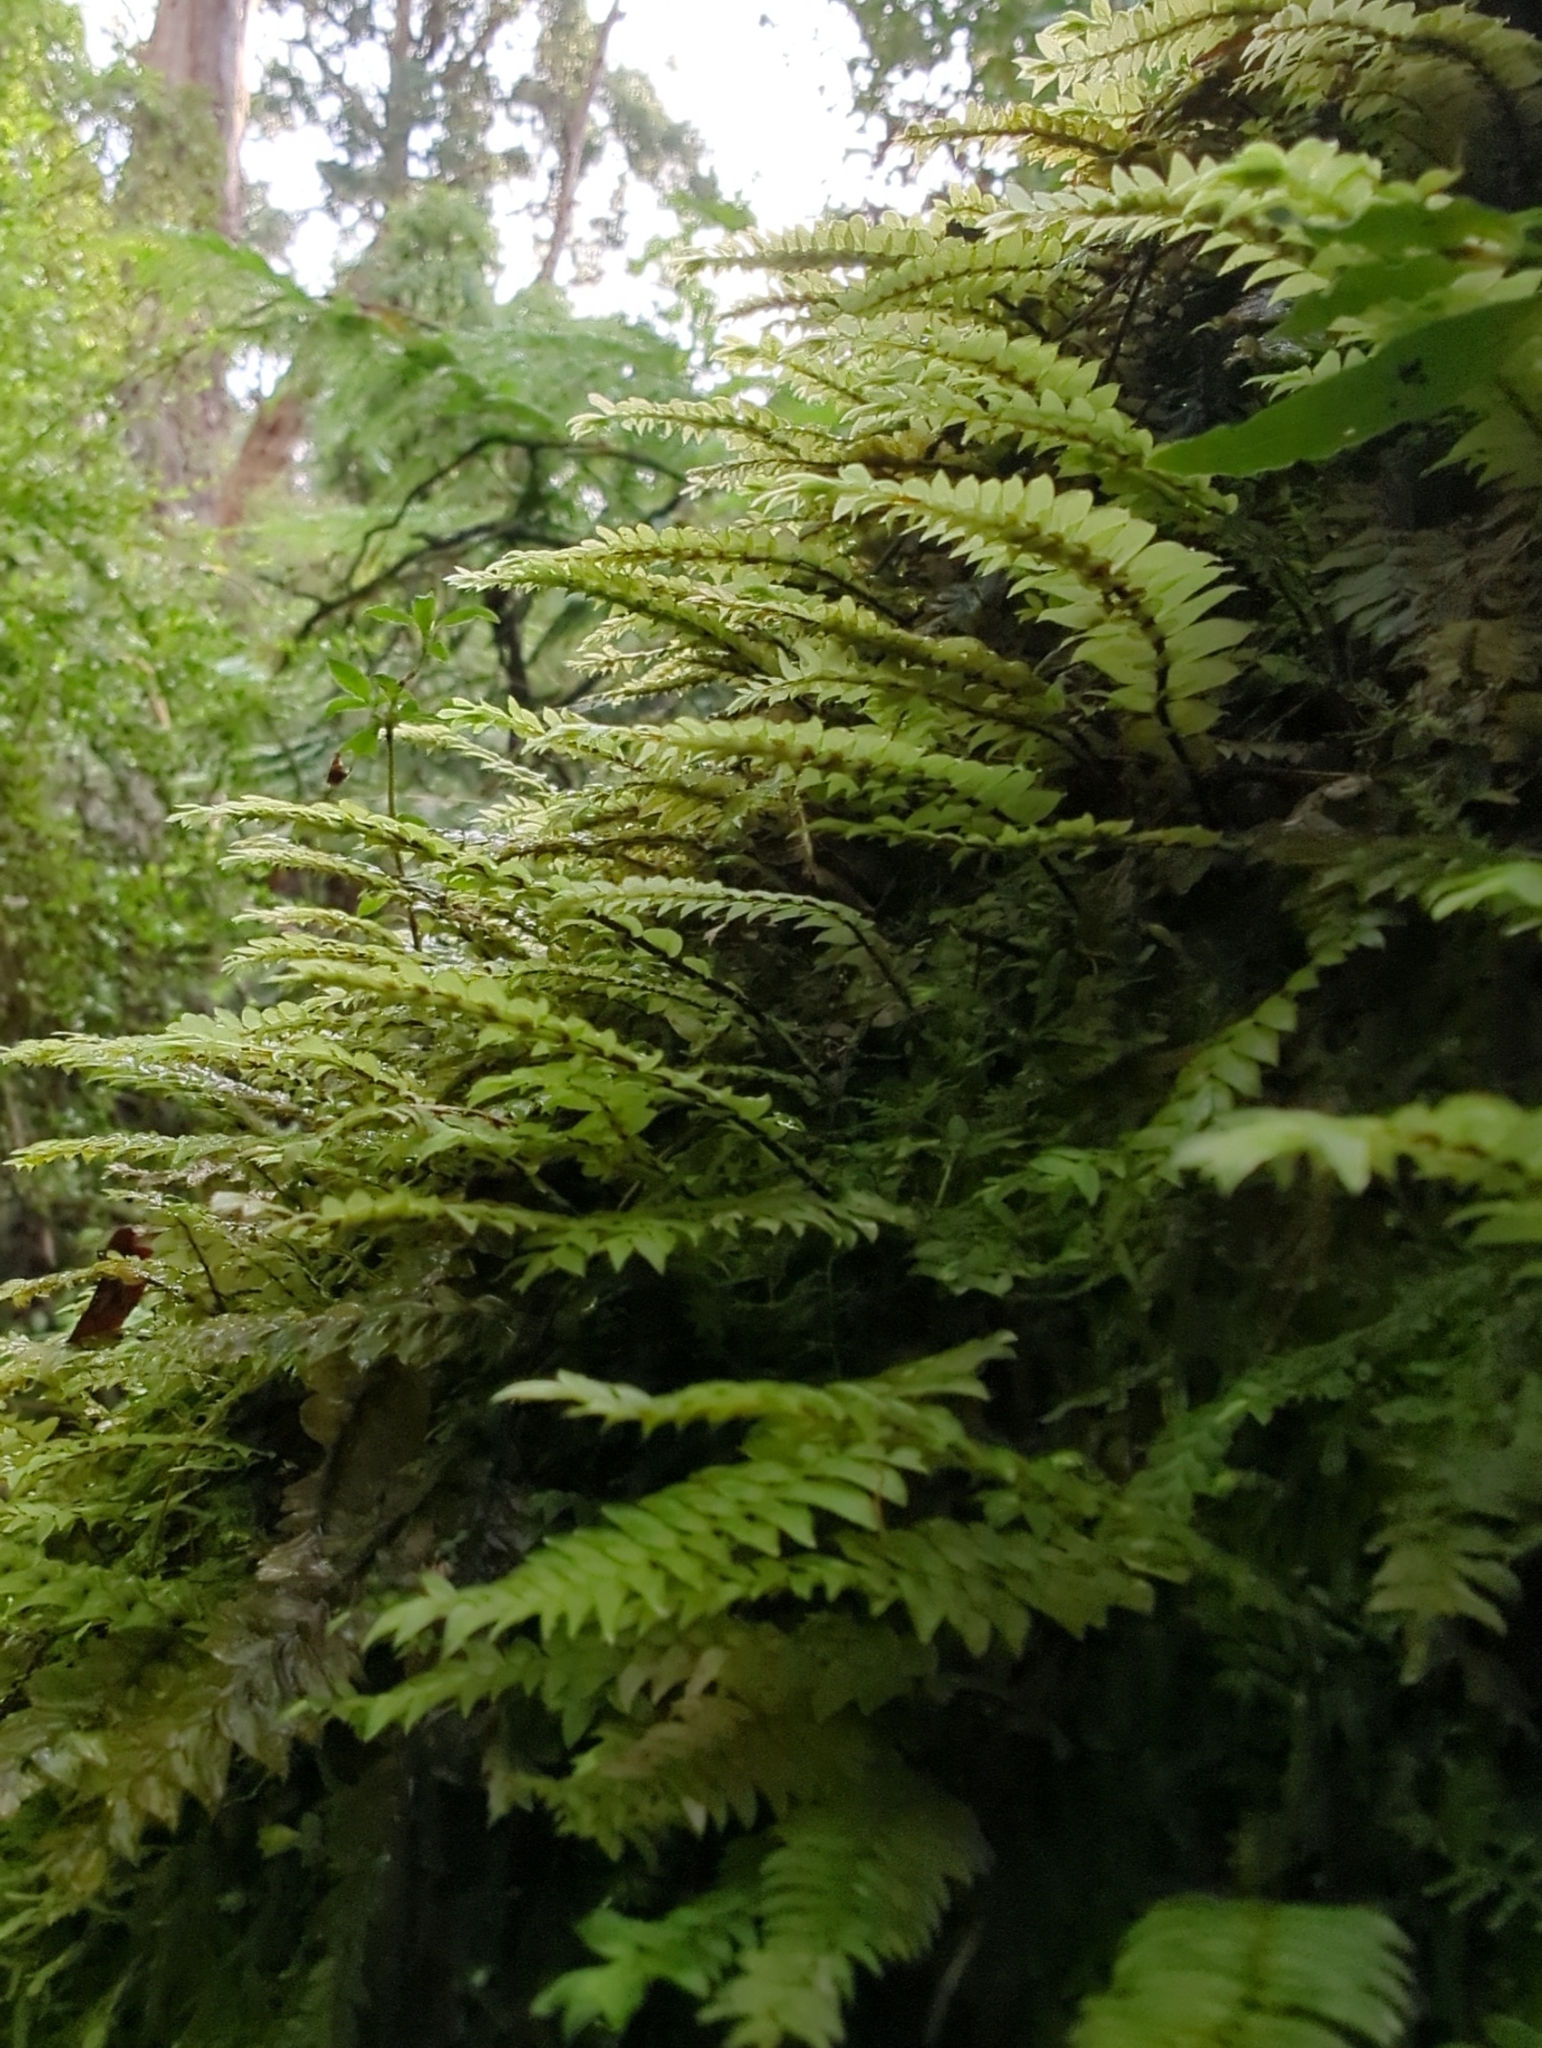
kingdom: Plantae
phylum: Bryophyta
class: Bryopsida
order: Hypopterygiales
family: Hypopterygiaceae
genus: Cyathophorum
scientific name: Cyathophorum bulbosum
